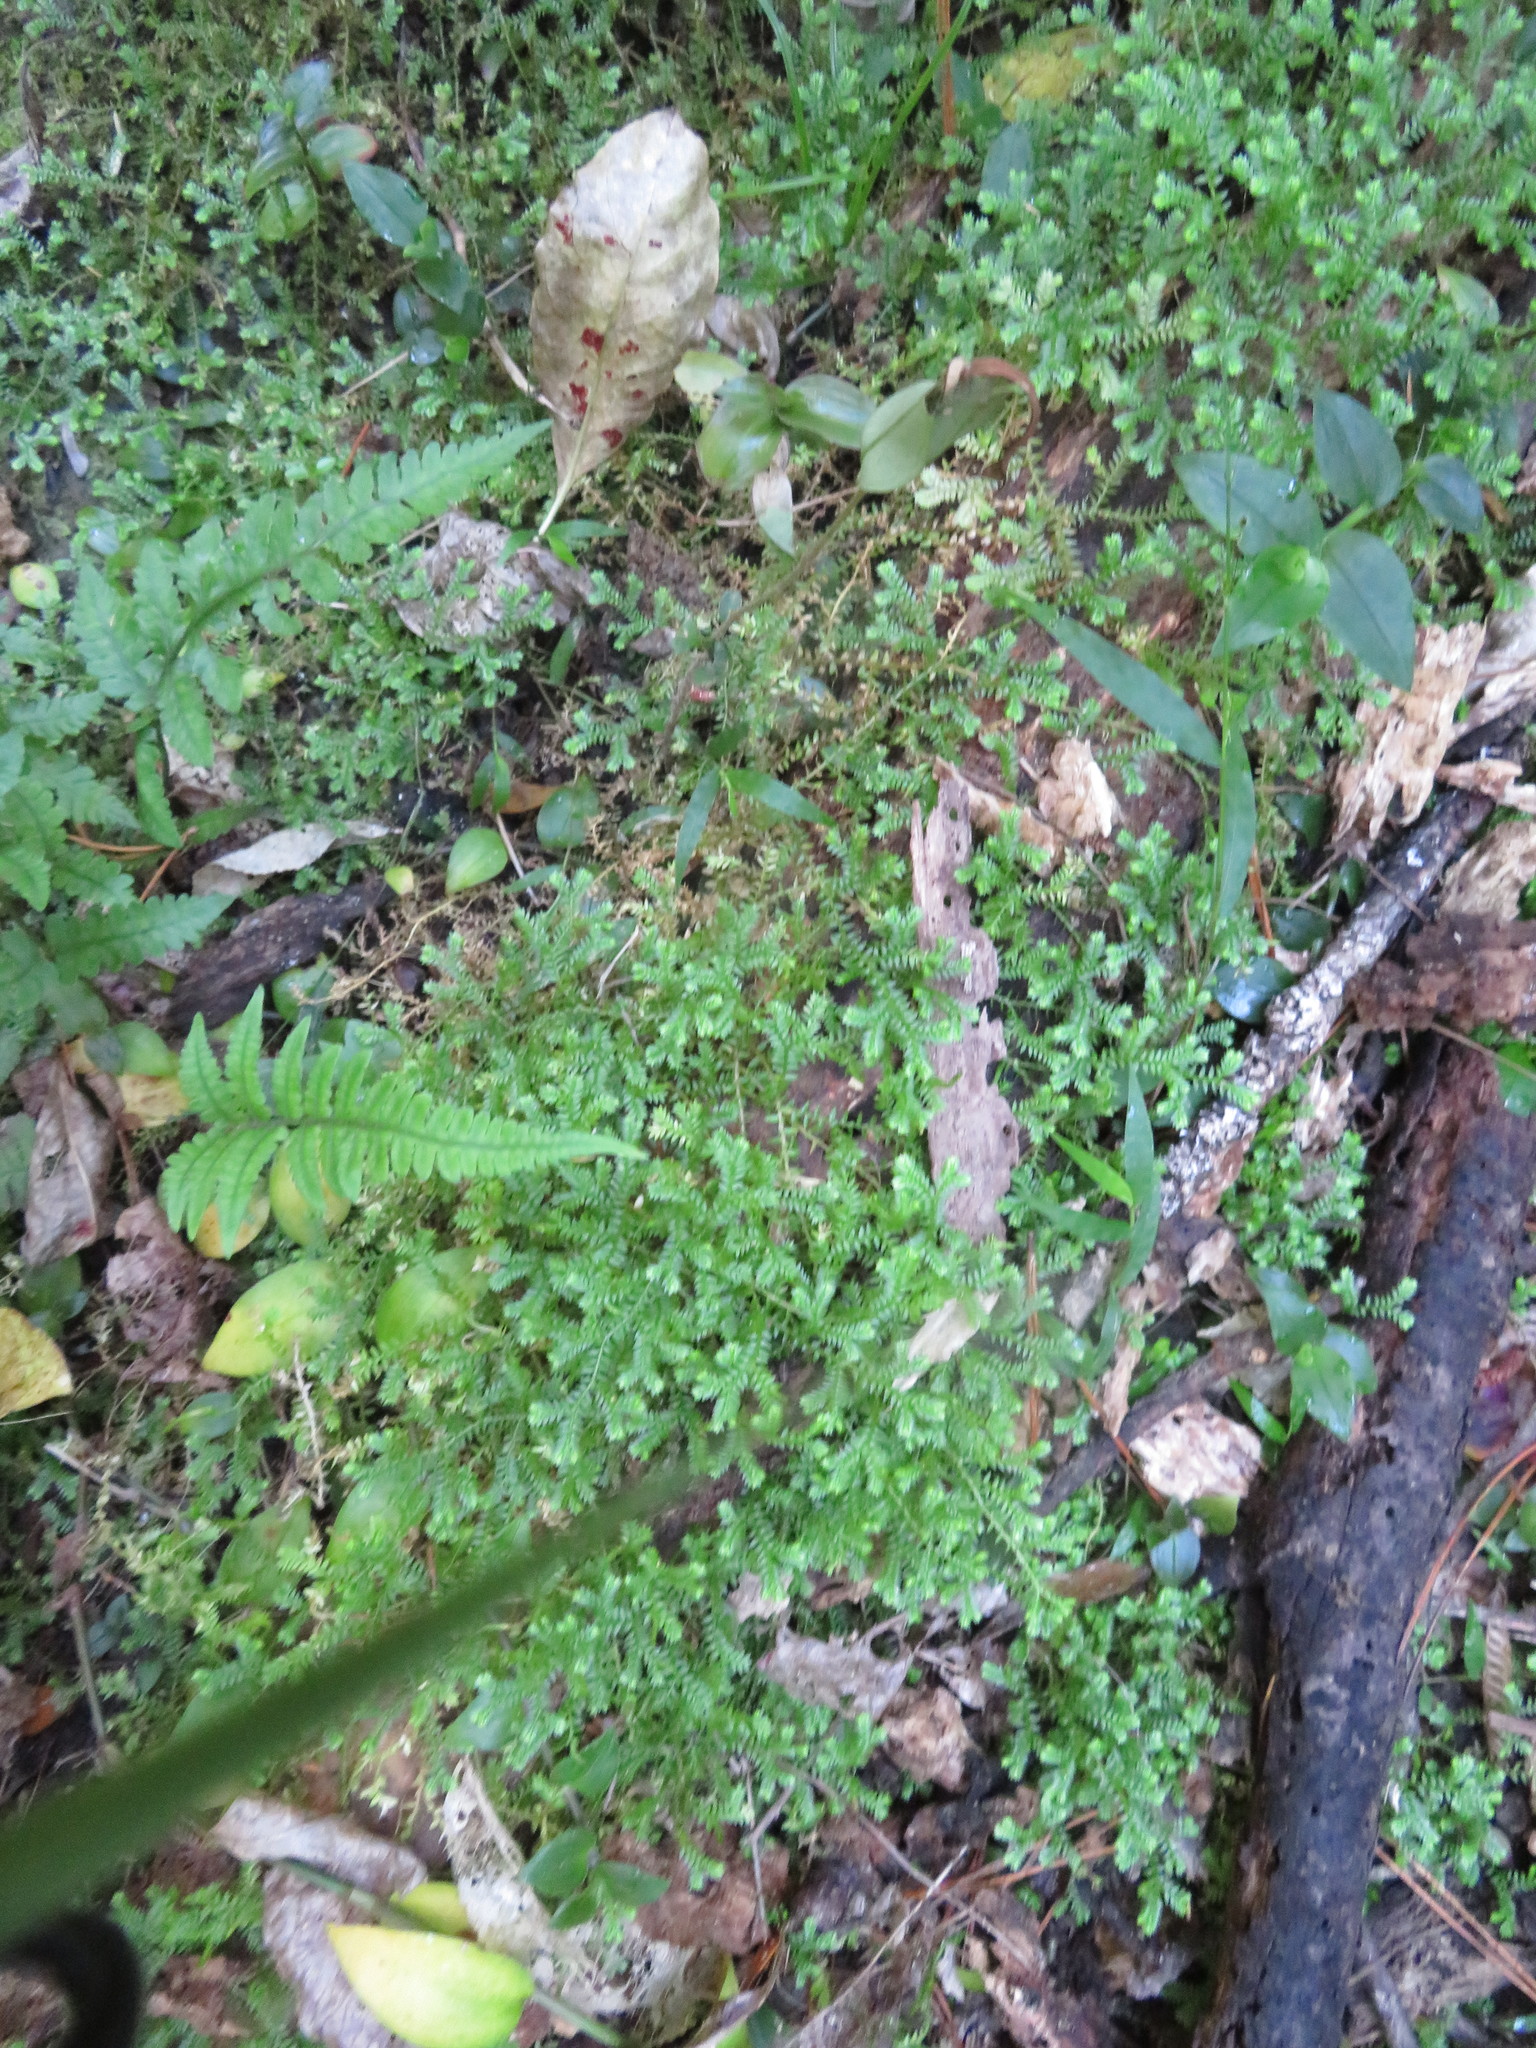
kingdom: Plantae
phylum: Tracheophyta
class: Lycopodiopsida
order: Selaginellales
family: Selaginellaceae
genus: Selaginella
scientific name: Selaginella kraussiana
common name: Krauss' spikemoss
